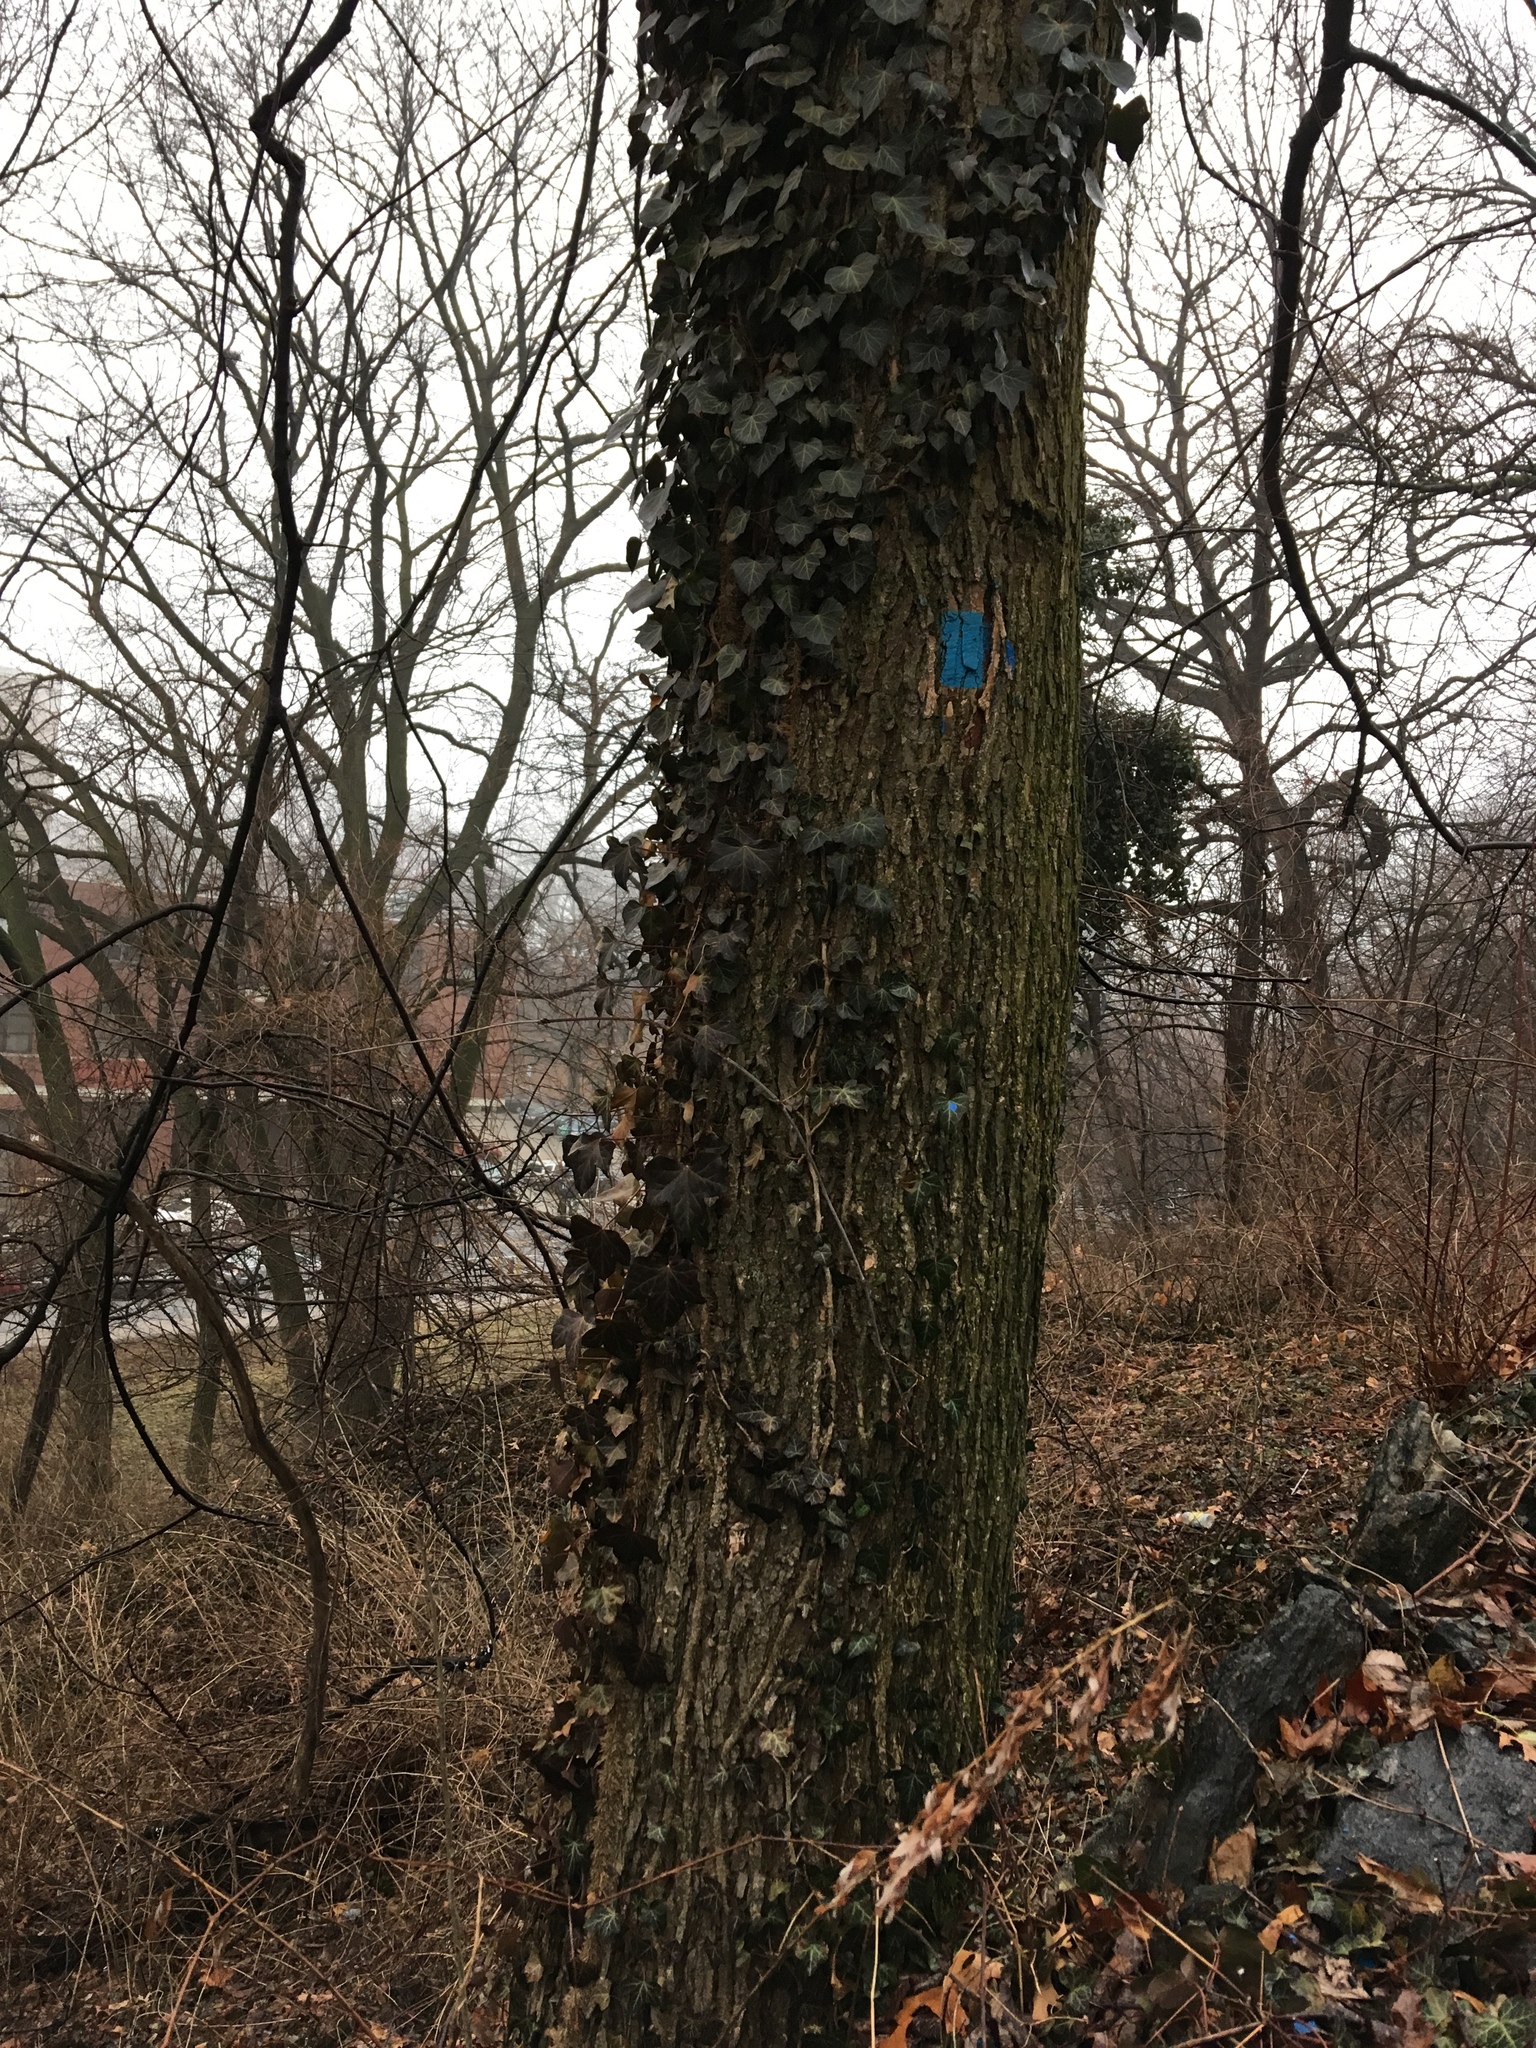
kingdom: Plantae
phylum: Tracheophyta
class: Magnoliopsida
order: Apiales
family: Araliaceae
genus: Hedera
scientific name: Hedera helix
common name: Ivy
